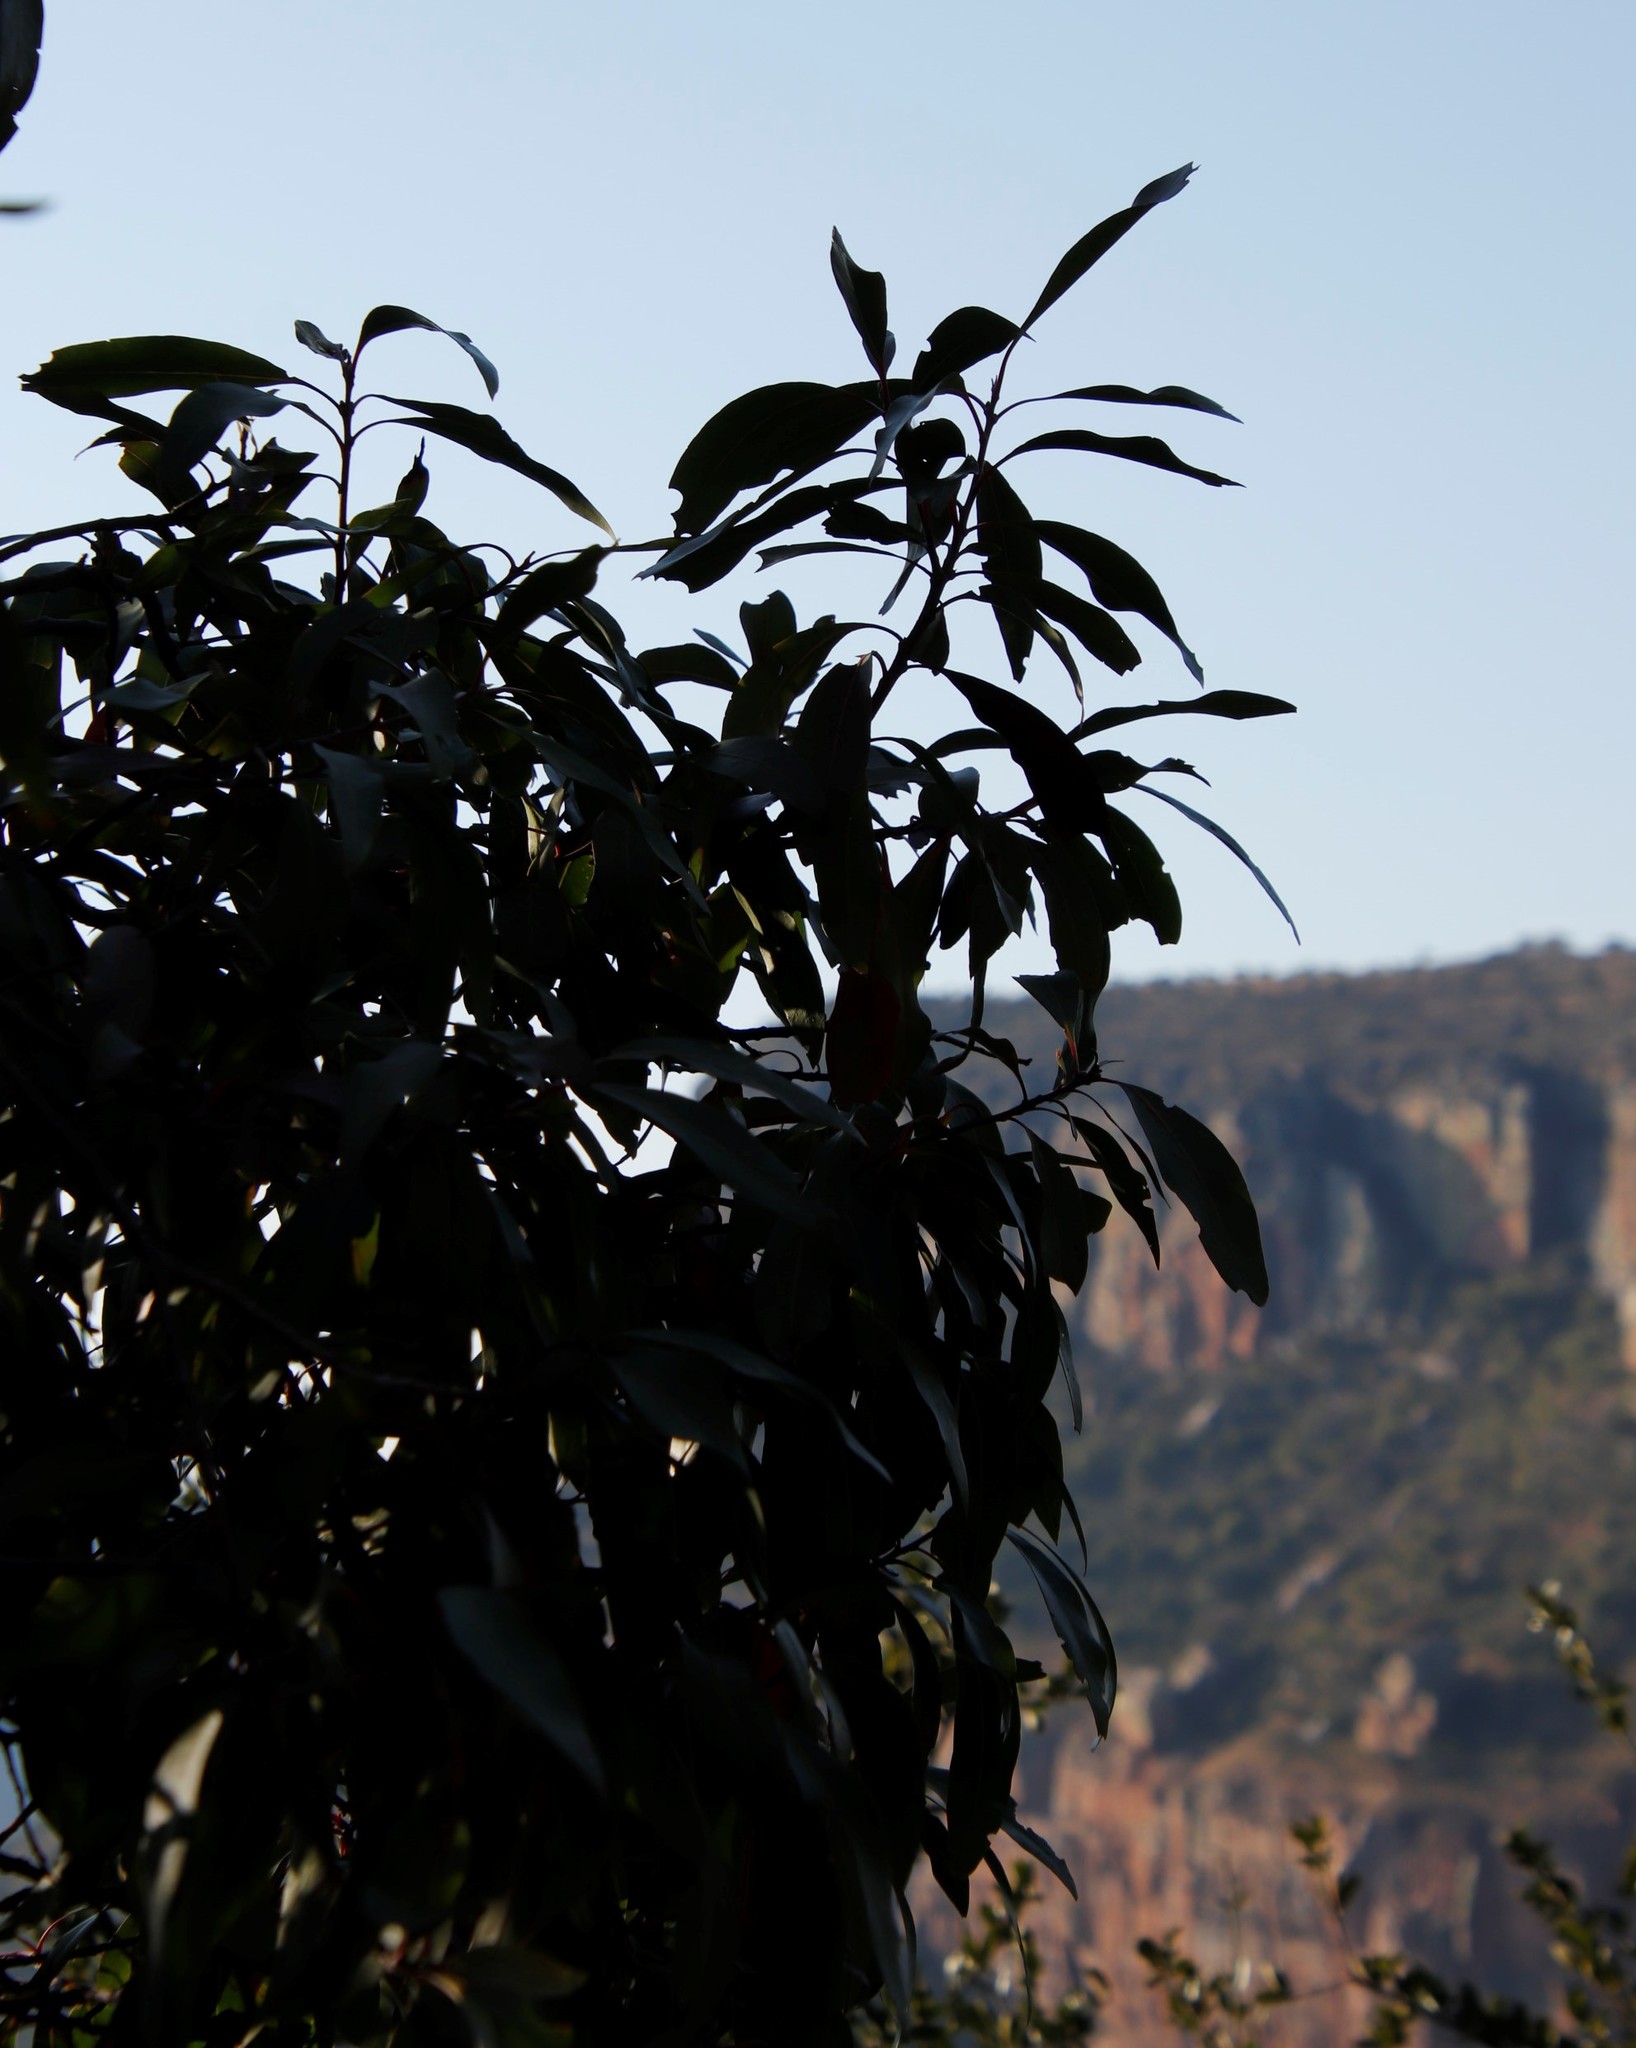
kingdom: Plantae
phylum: Tracheophyta
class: Magnoliopsida
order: Proteales
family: Proteaceae
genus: Faurea
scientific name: Faurea saligna
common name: African bean
